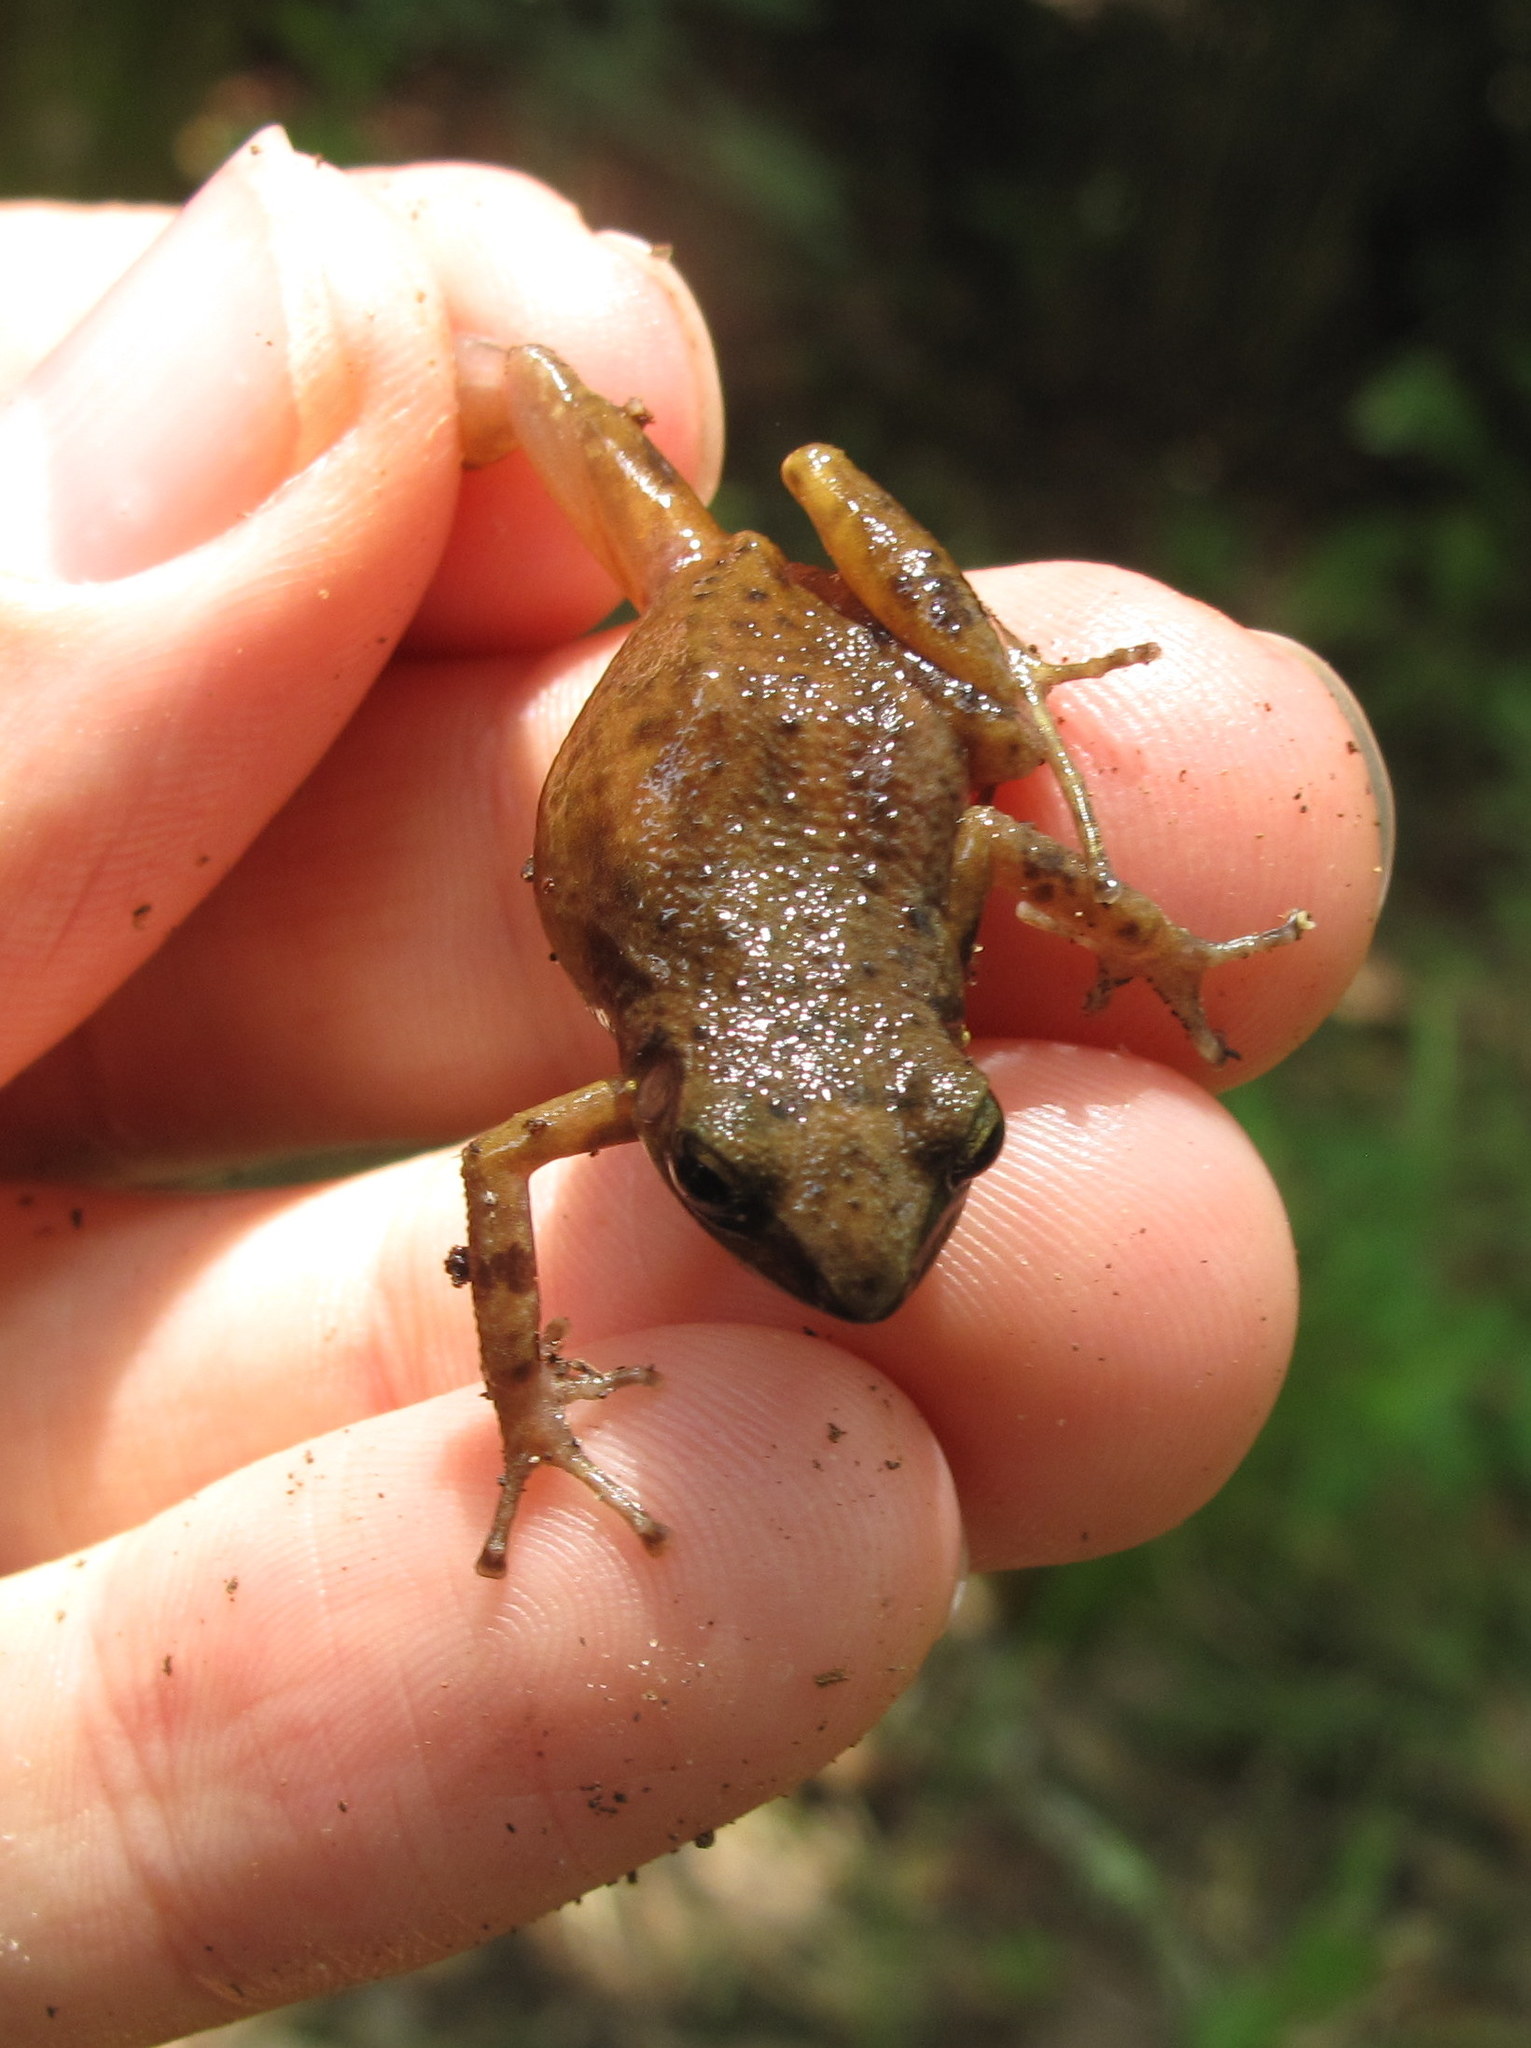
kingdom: Animalia
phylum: Chordata
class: Amphibia
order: Anura
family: Eleutherodactylidae
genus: Eleutherodactylus
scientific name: Eleutherodactylus campi
